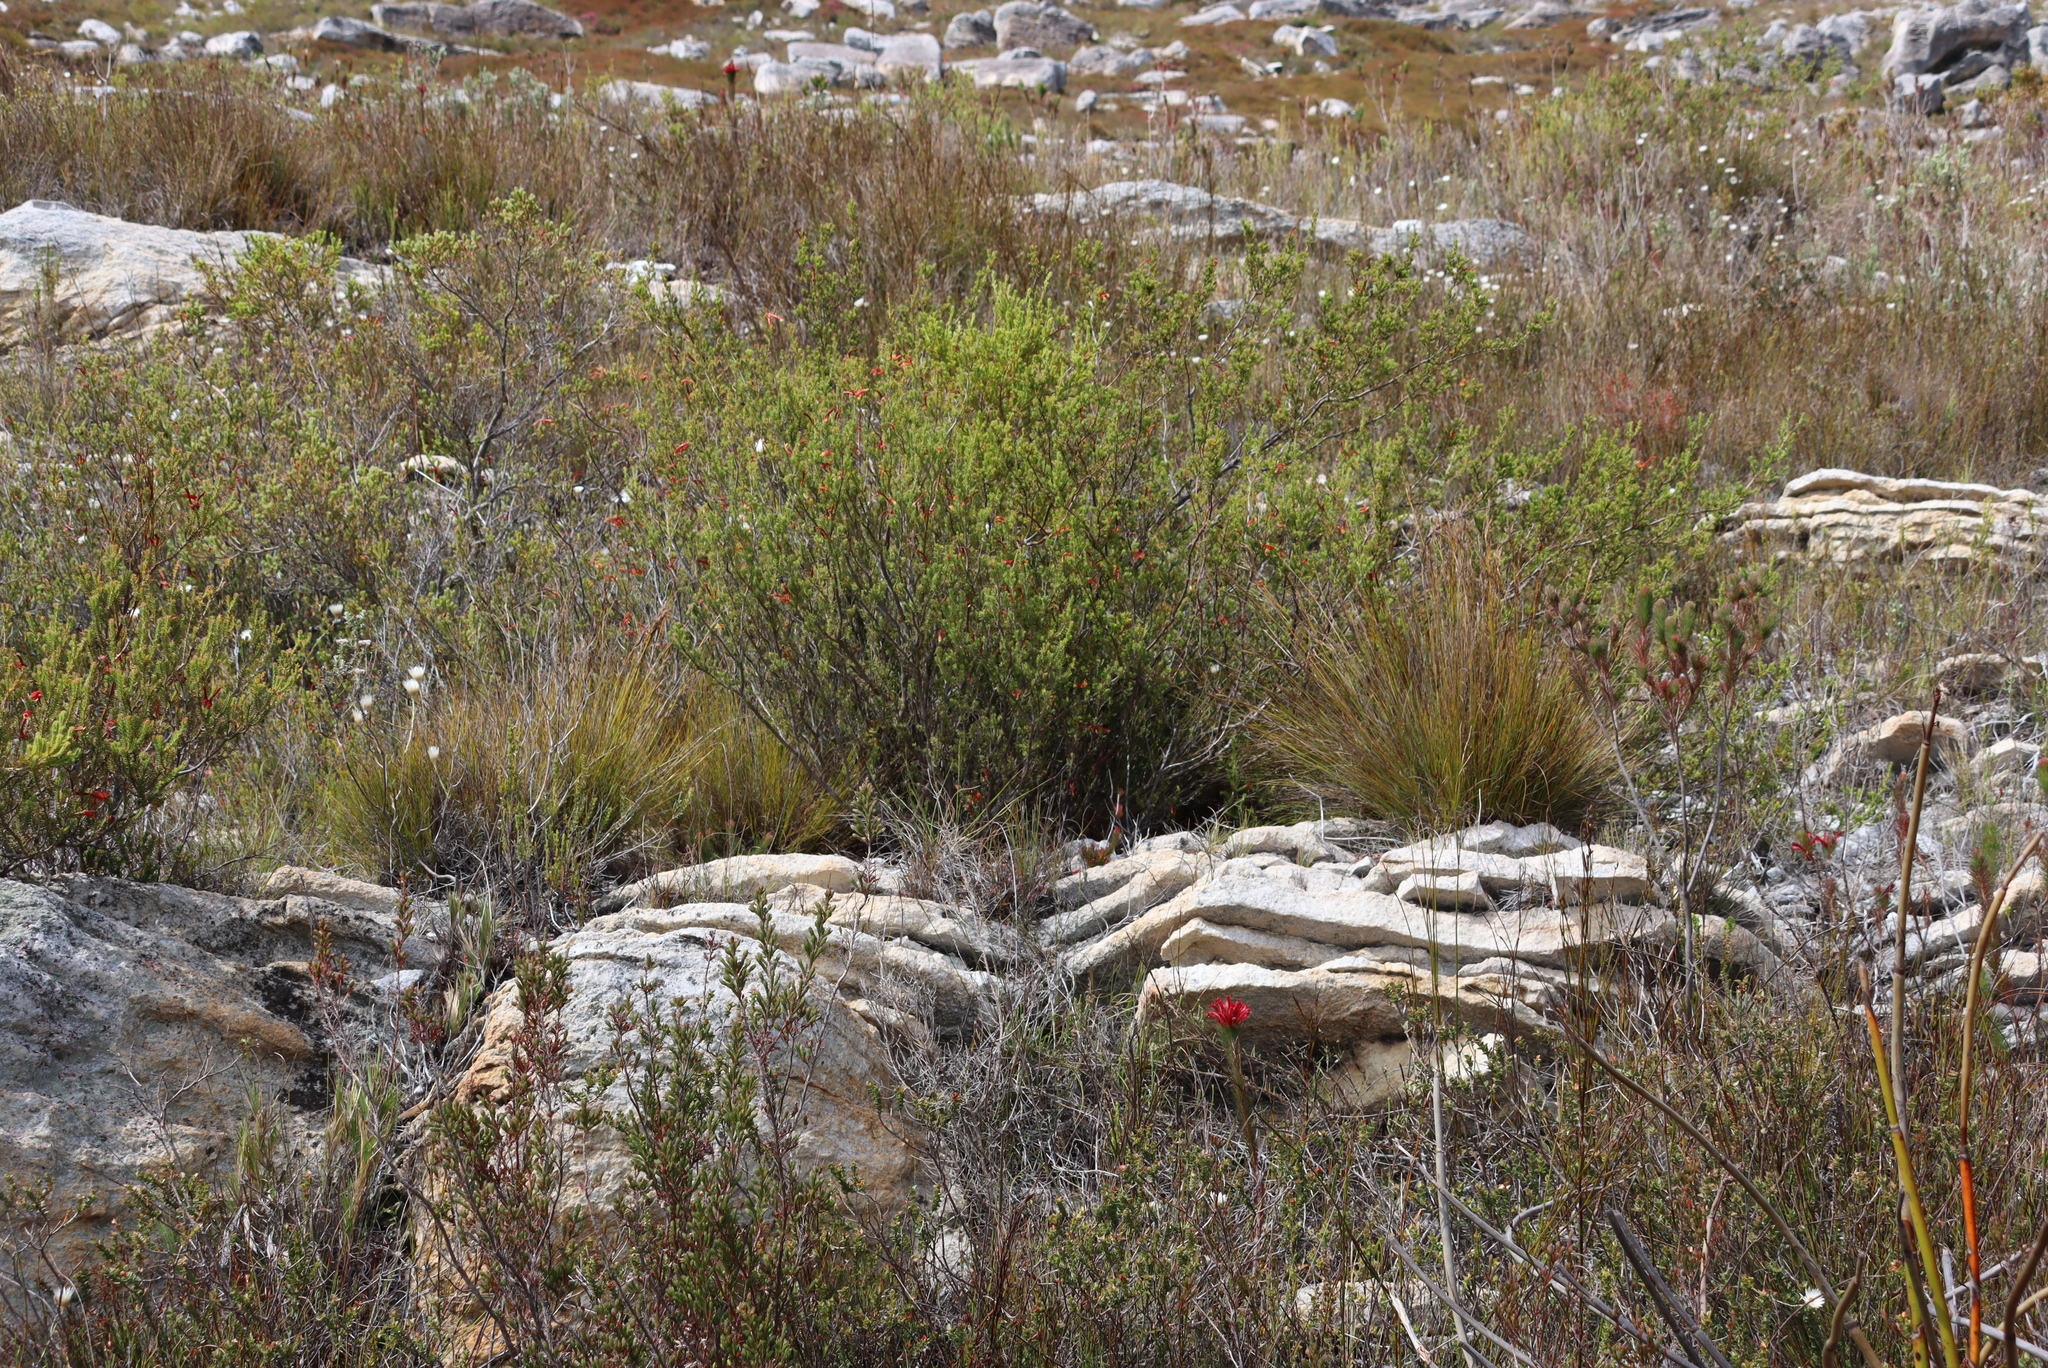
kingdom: Plantae
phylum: Tracheophyta
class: Magnoliopsida
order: Ericales
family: Ericaceae
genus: Erica
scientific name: Erica discolor
